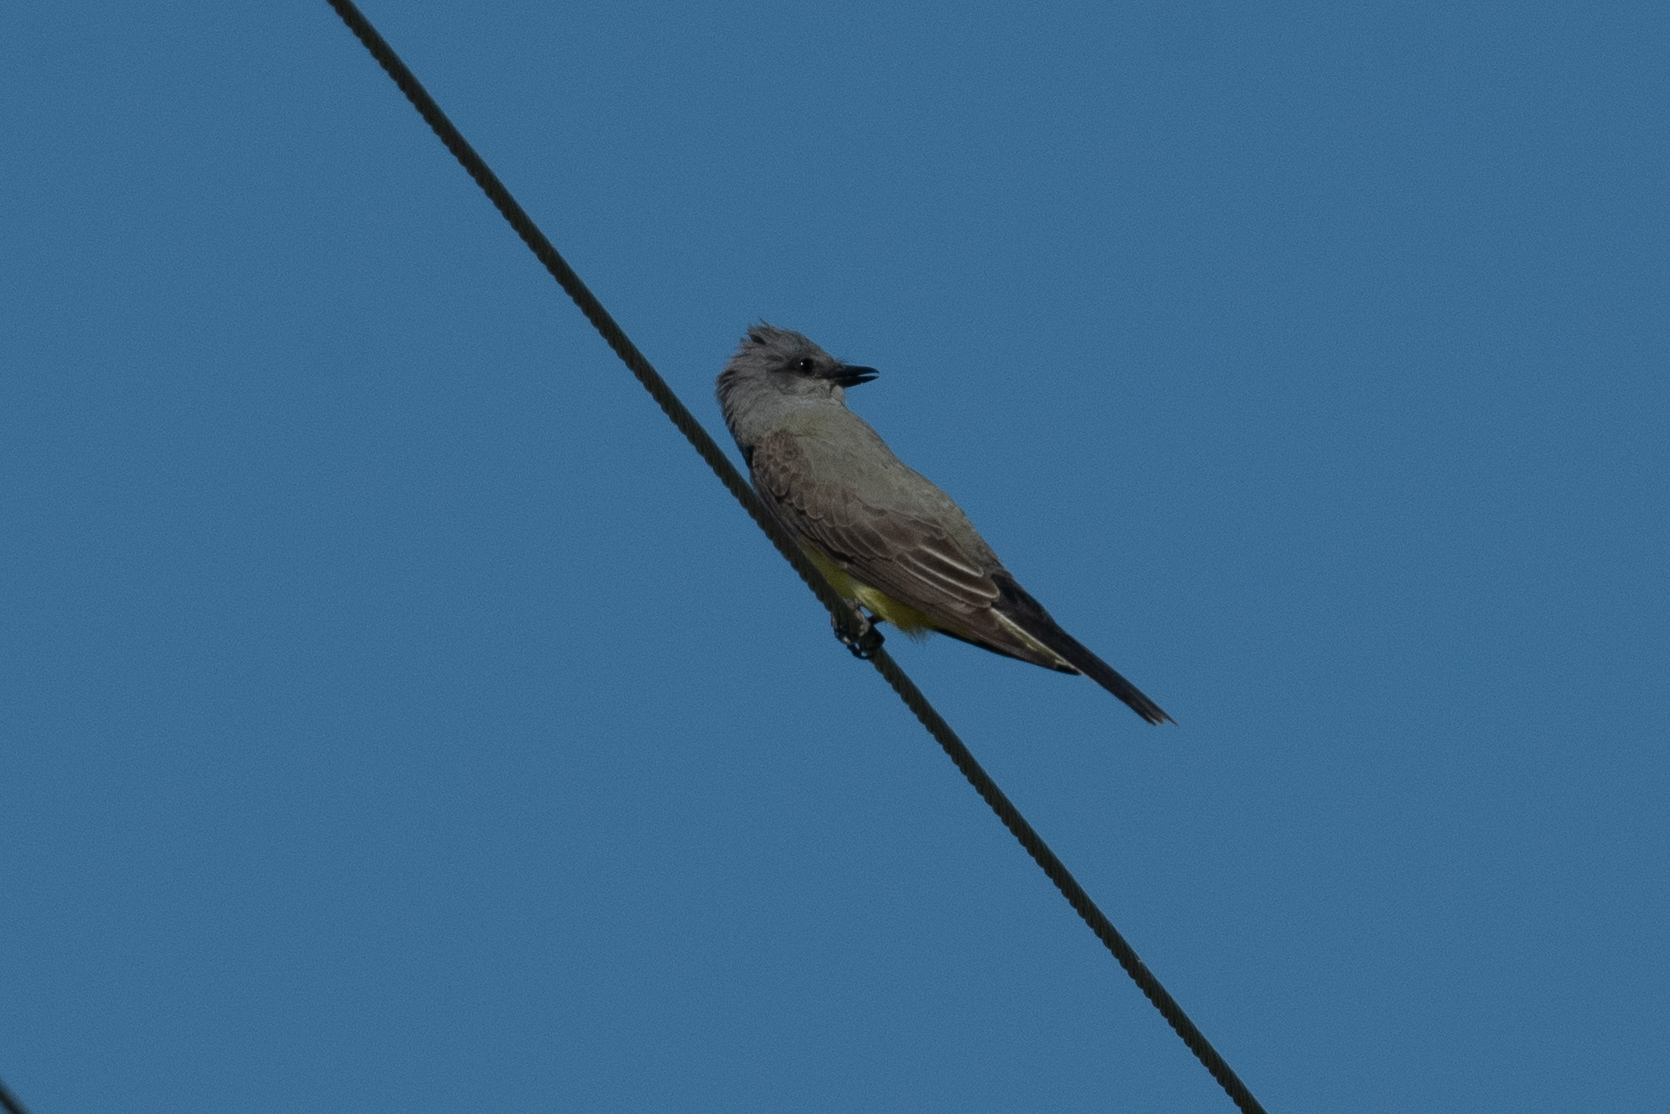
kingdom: Animalia
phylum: Chordata
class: Aves
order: Passeriformes
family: Tyrannidae
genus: Tyrannus
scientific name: Tyrannus verticalis
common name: Western kingbird
